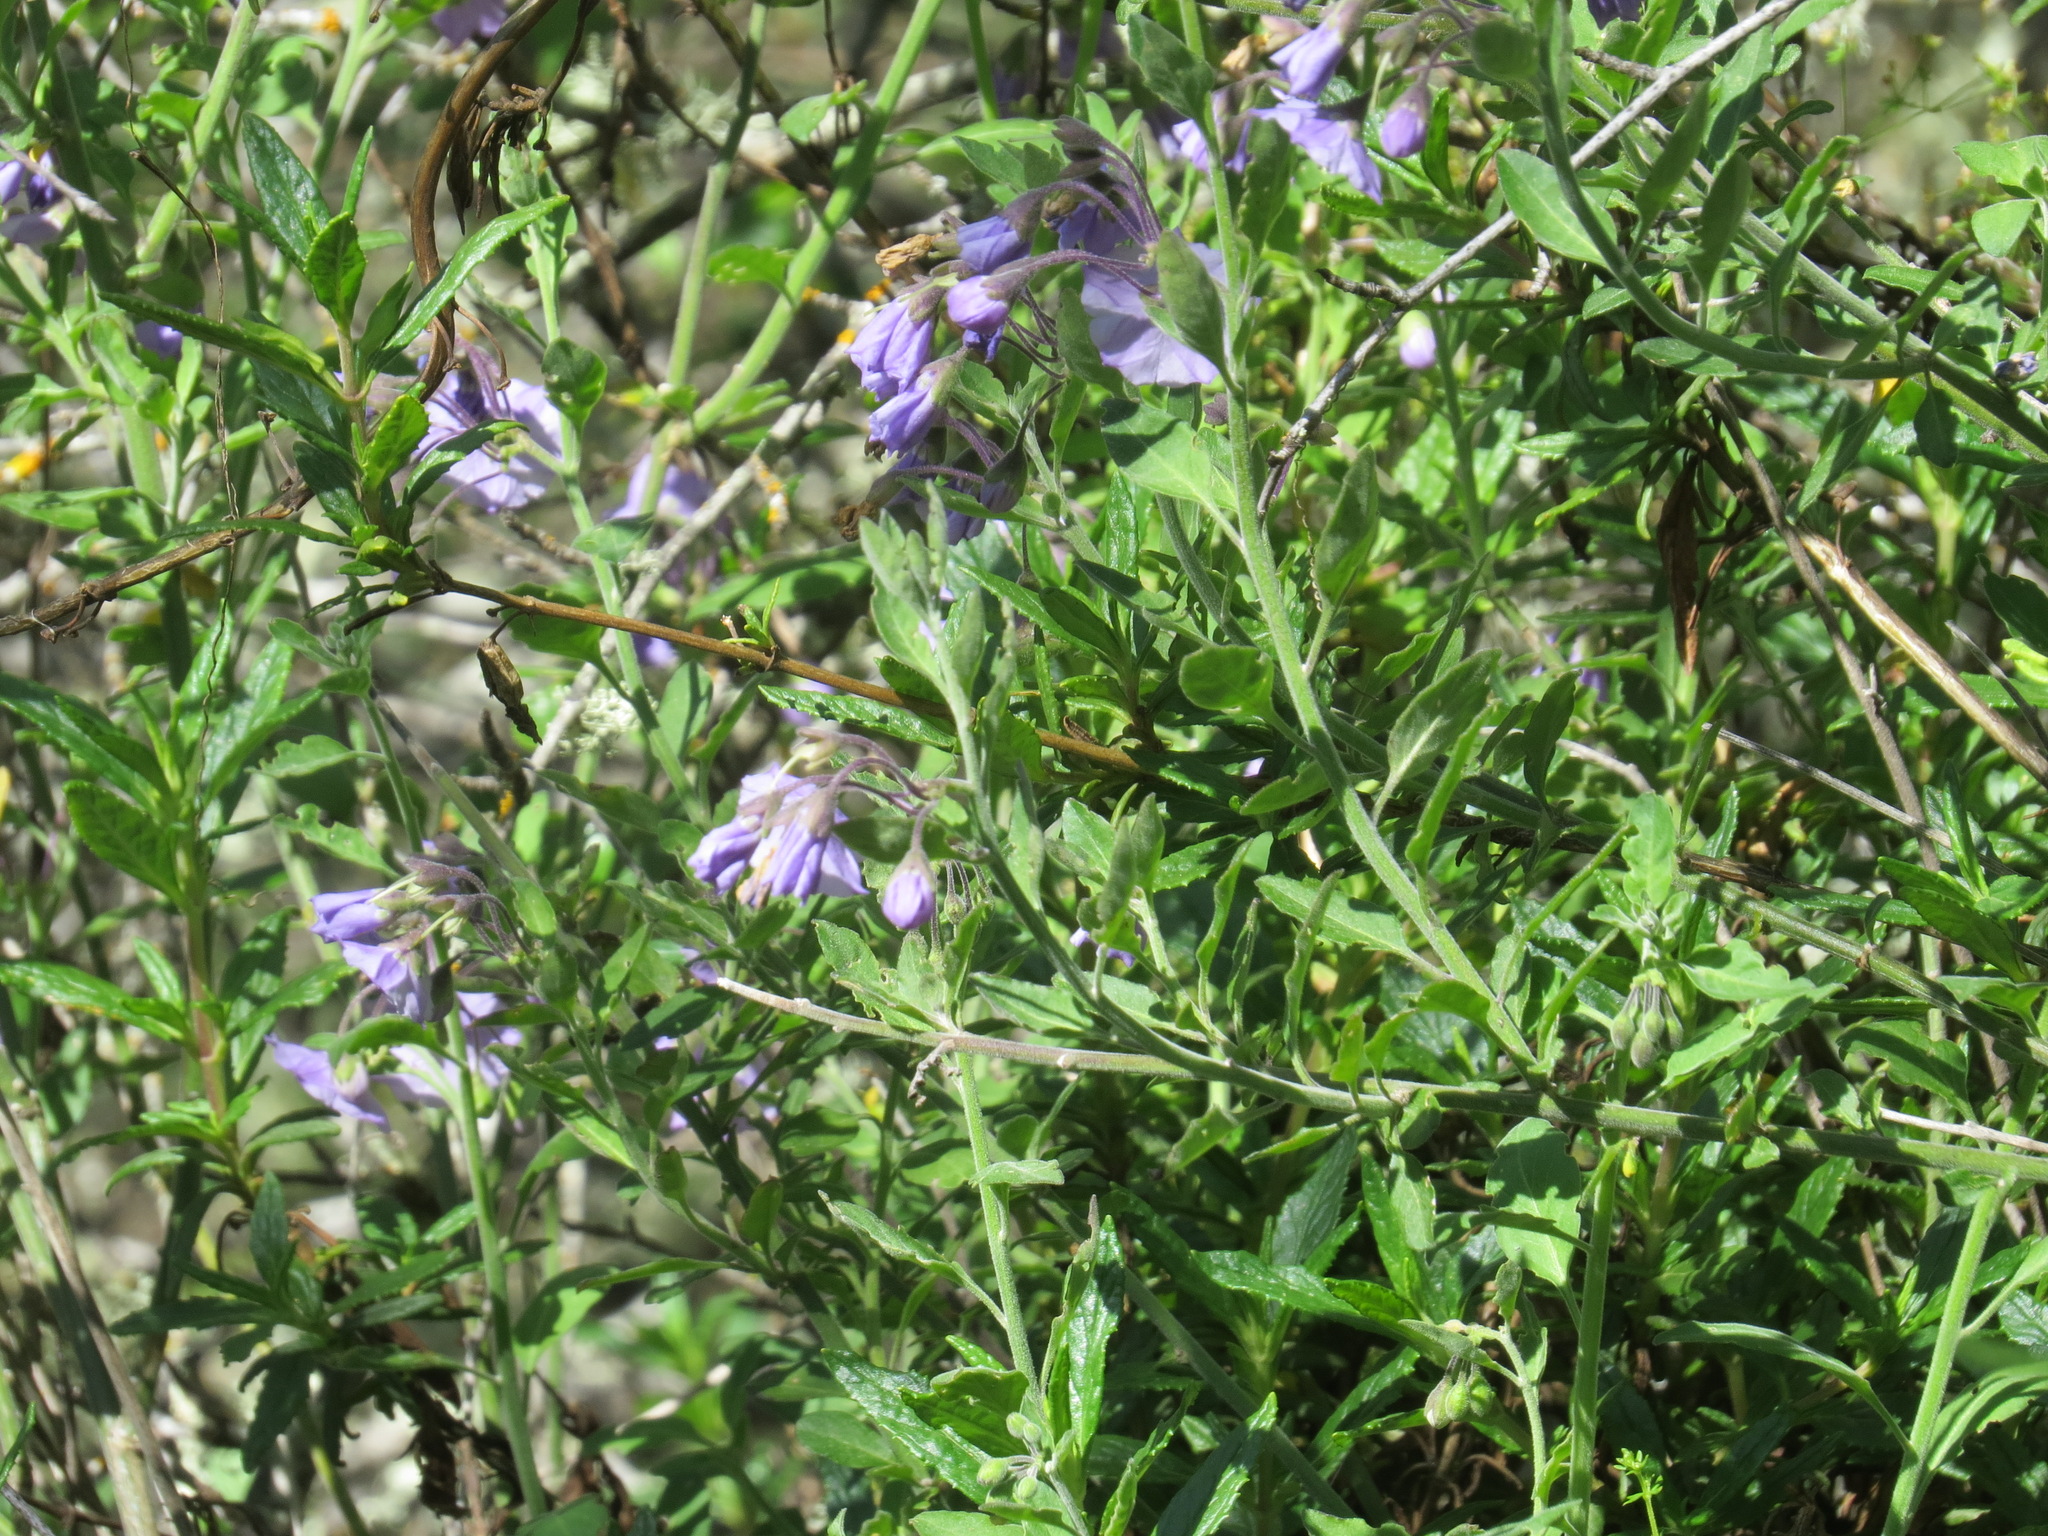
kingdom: Plantae
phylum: Tracheophyta
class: Magnoliopsida
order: Solanales
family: Solanaceae
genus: Solanum
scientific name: Solanum umbelliferum
